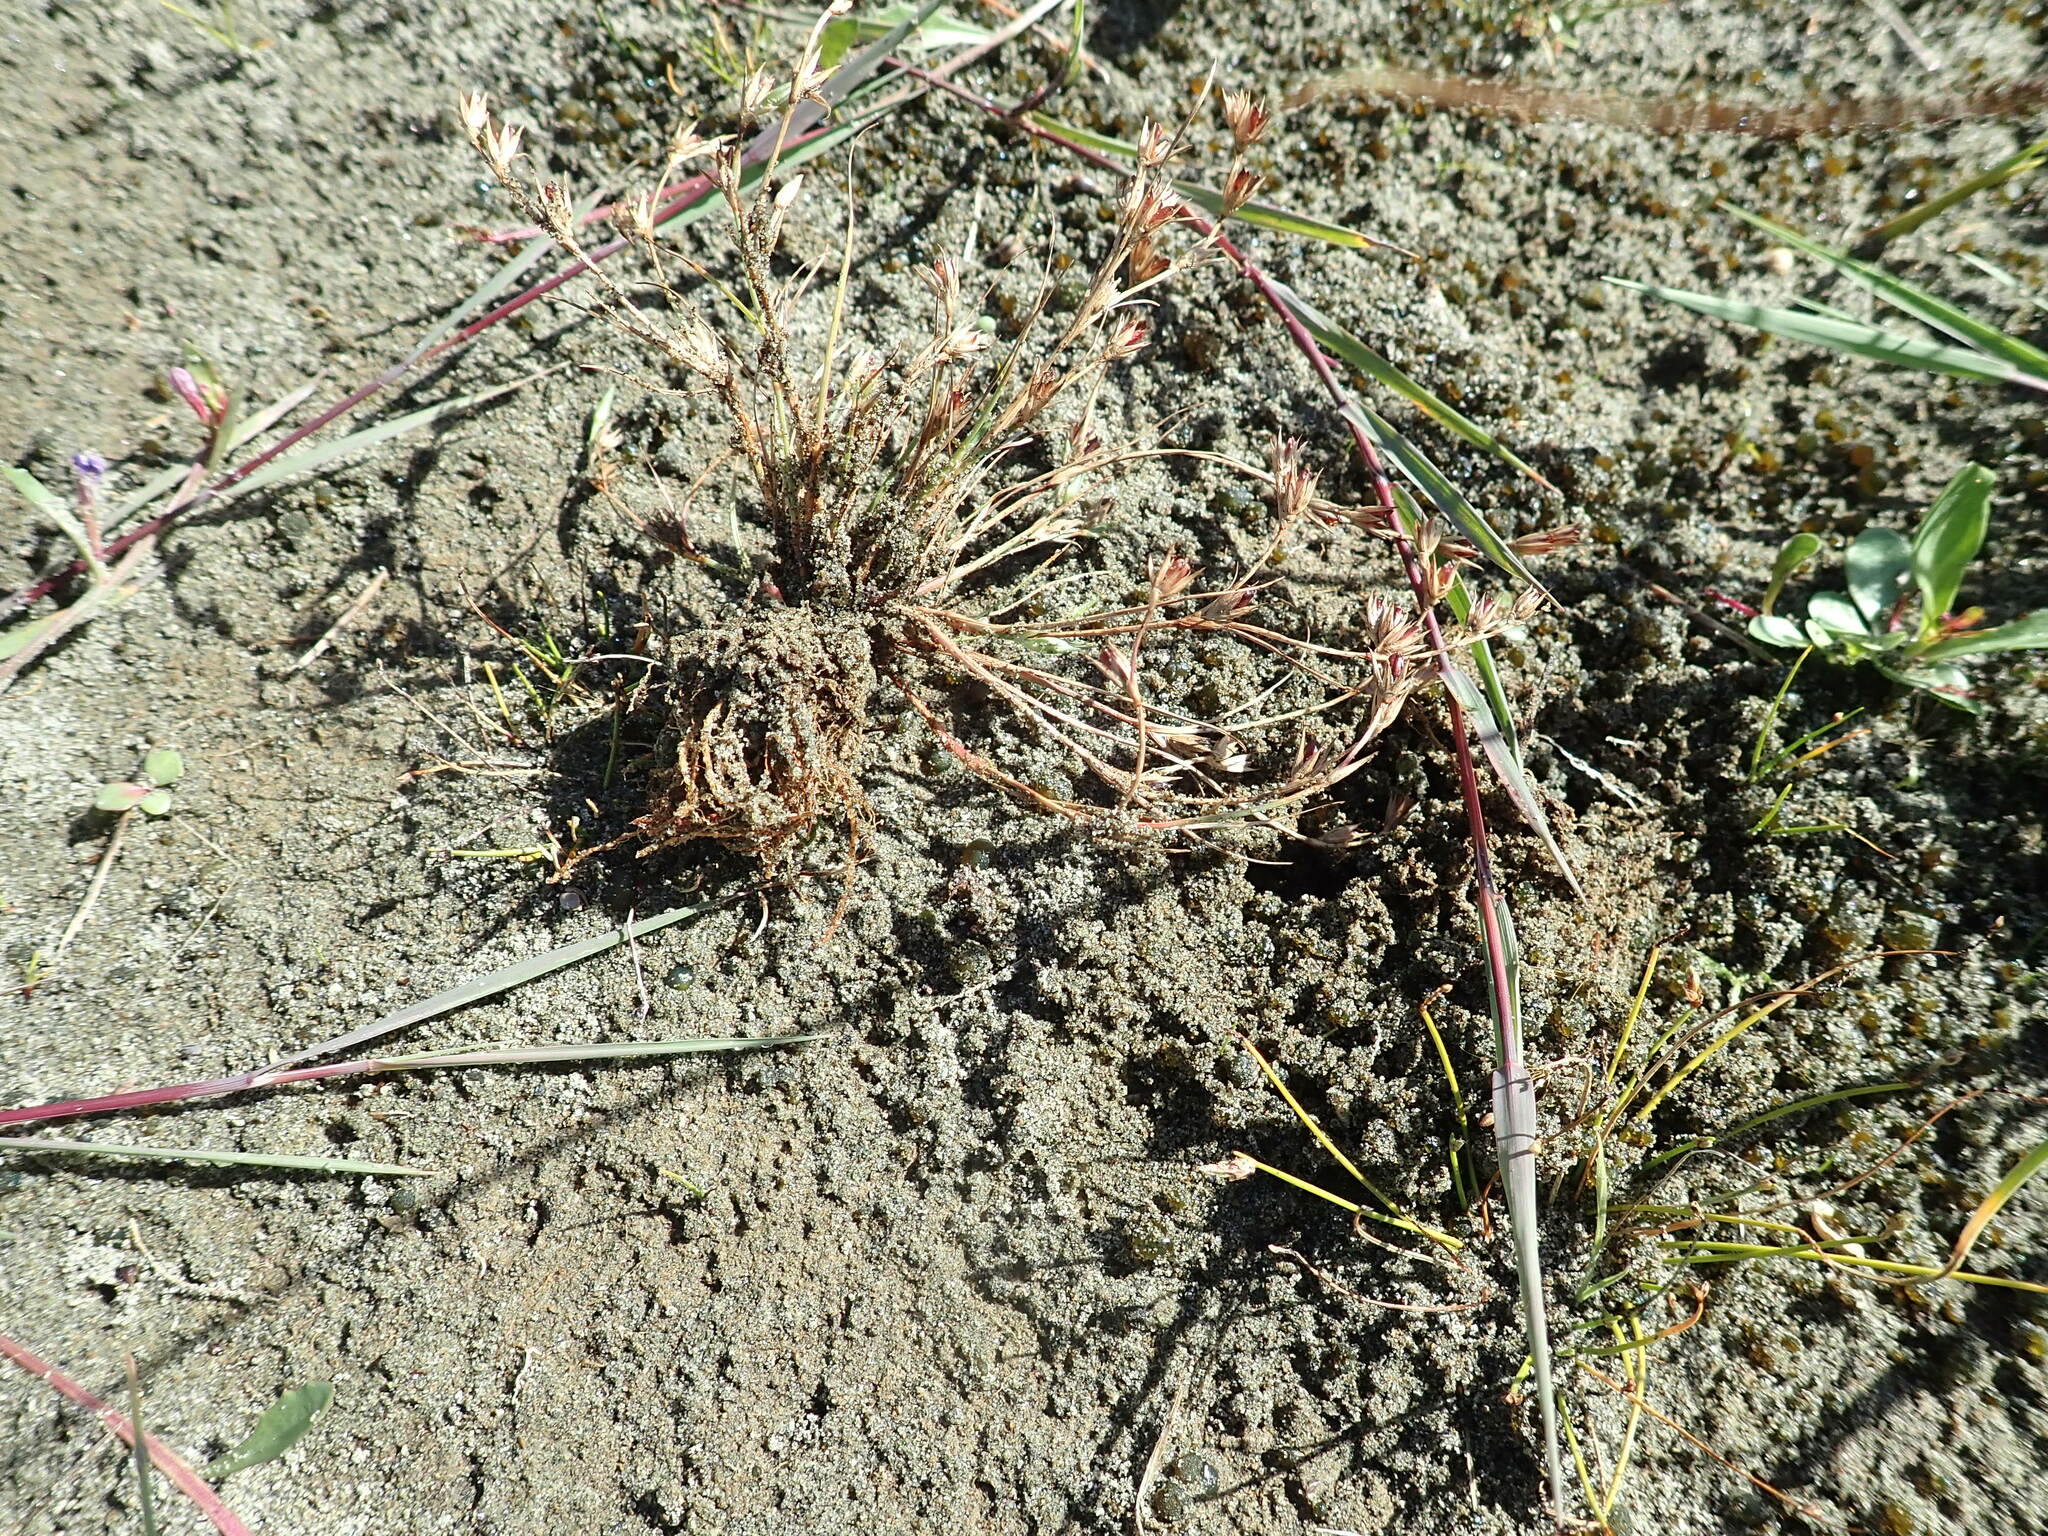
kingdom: Plantae
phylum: Tracheophyta
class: Liliopsida
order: Poales
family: Juncaceae
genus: Juncus
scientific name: Juncus bufonius
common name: Toad rush
